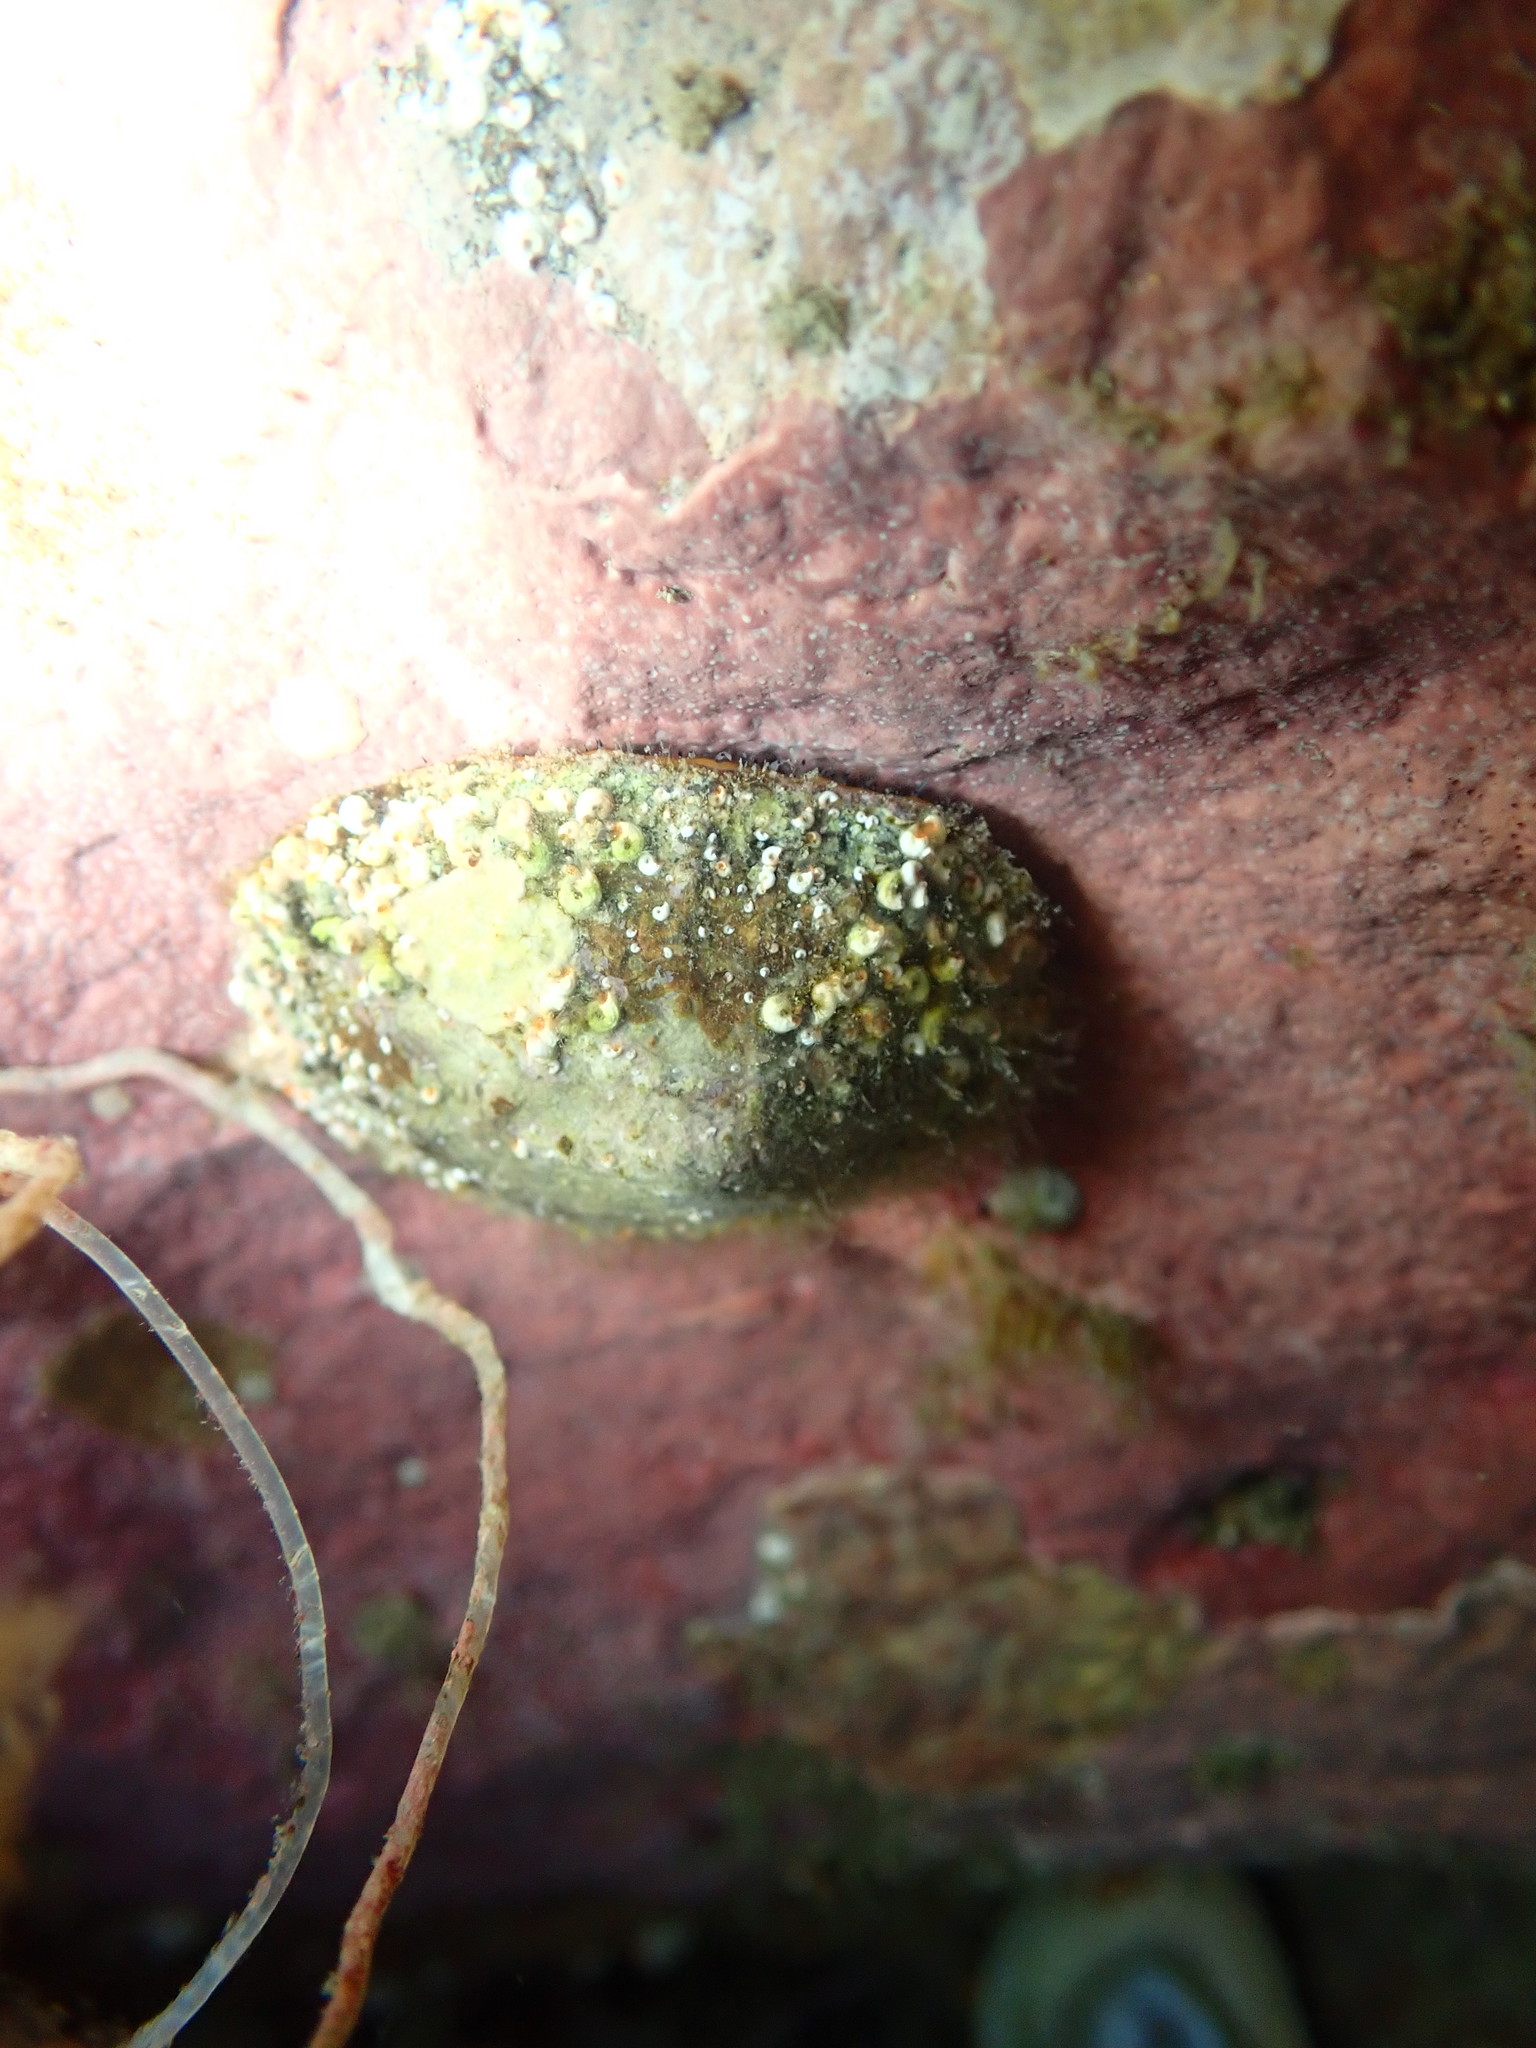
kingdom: Animalia
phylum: Mollusca
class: Gastropoda
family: Nacellidae
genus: Cellana
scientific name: Cellana stellifera
